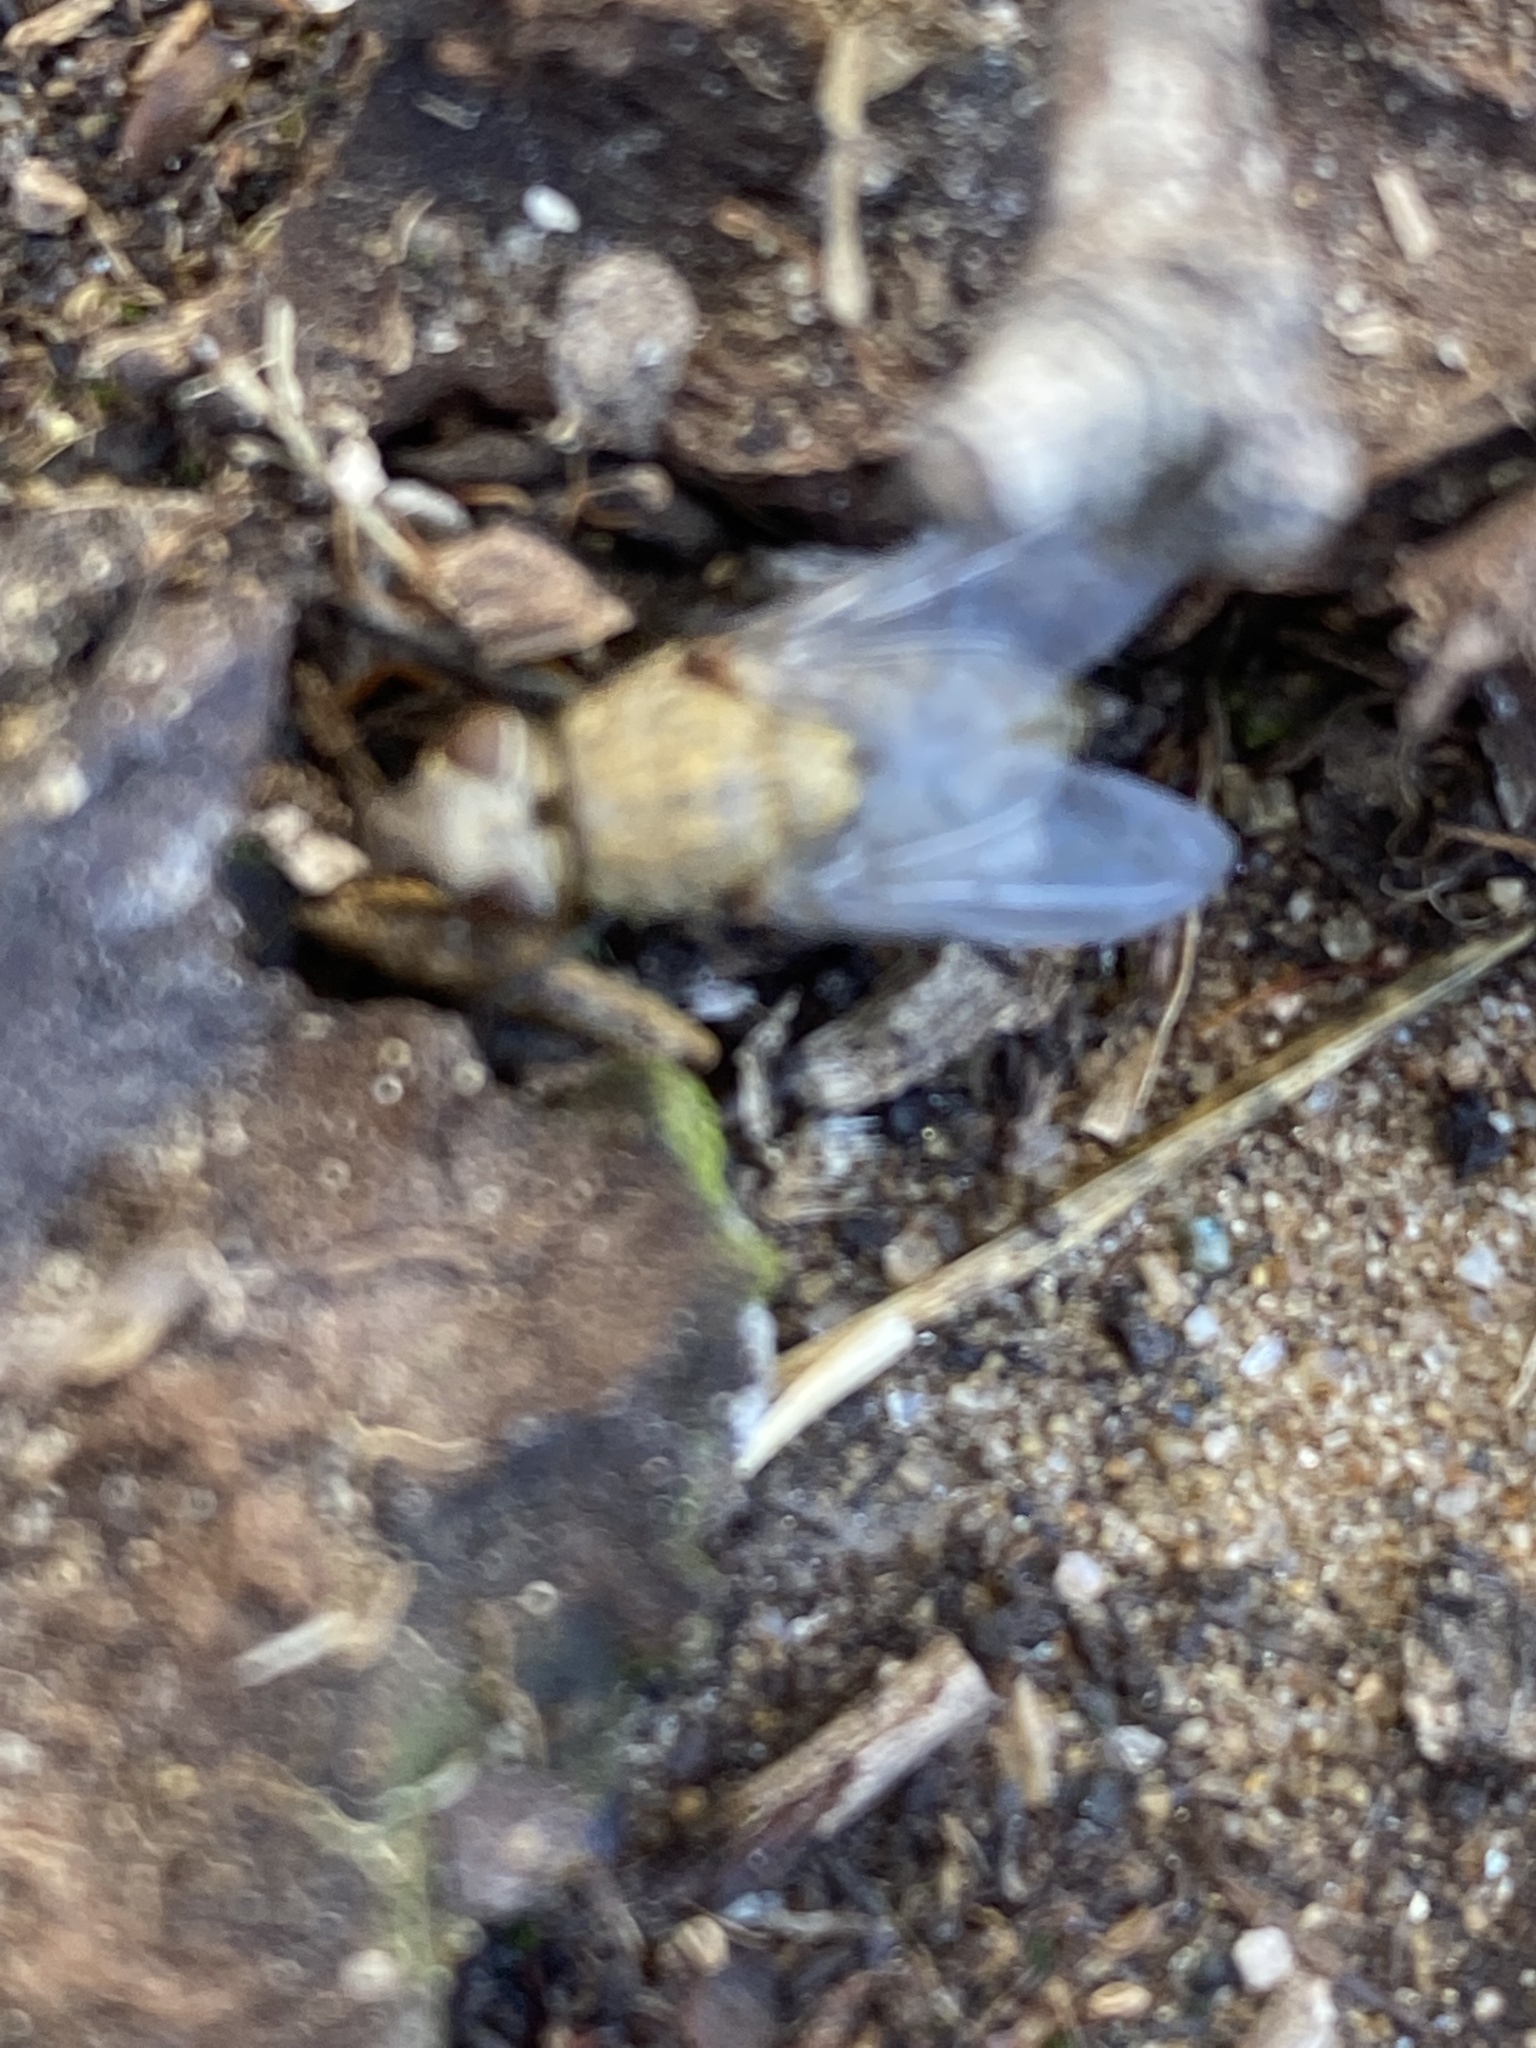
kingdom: Animalia
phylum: Arthropoda
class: Insecta
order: Diptera
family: Polleniidae
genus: Pollenia
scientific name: Pollenia
